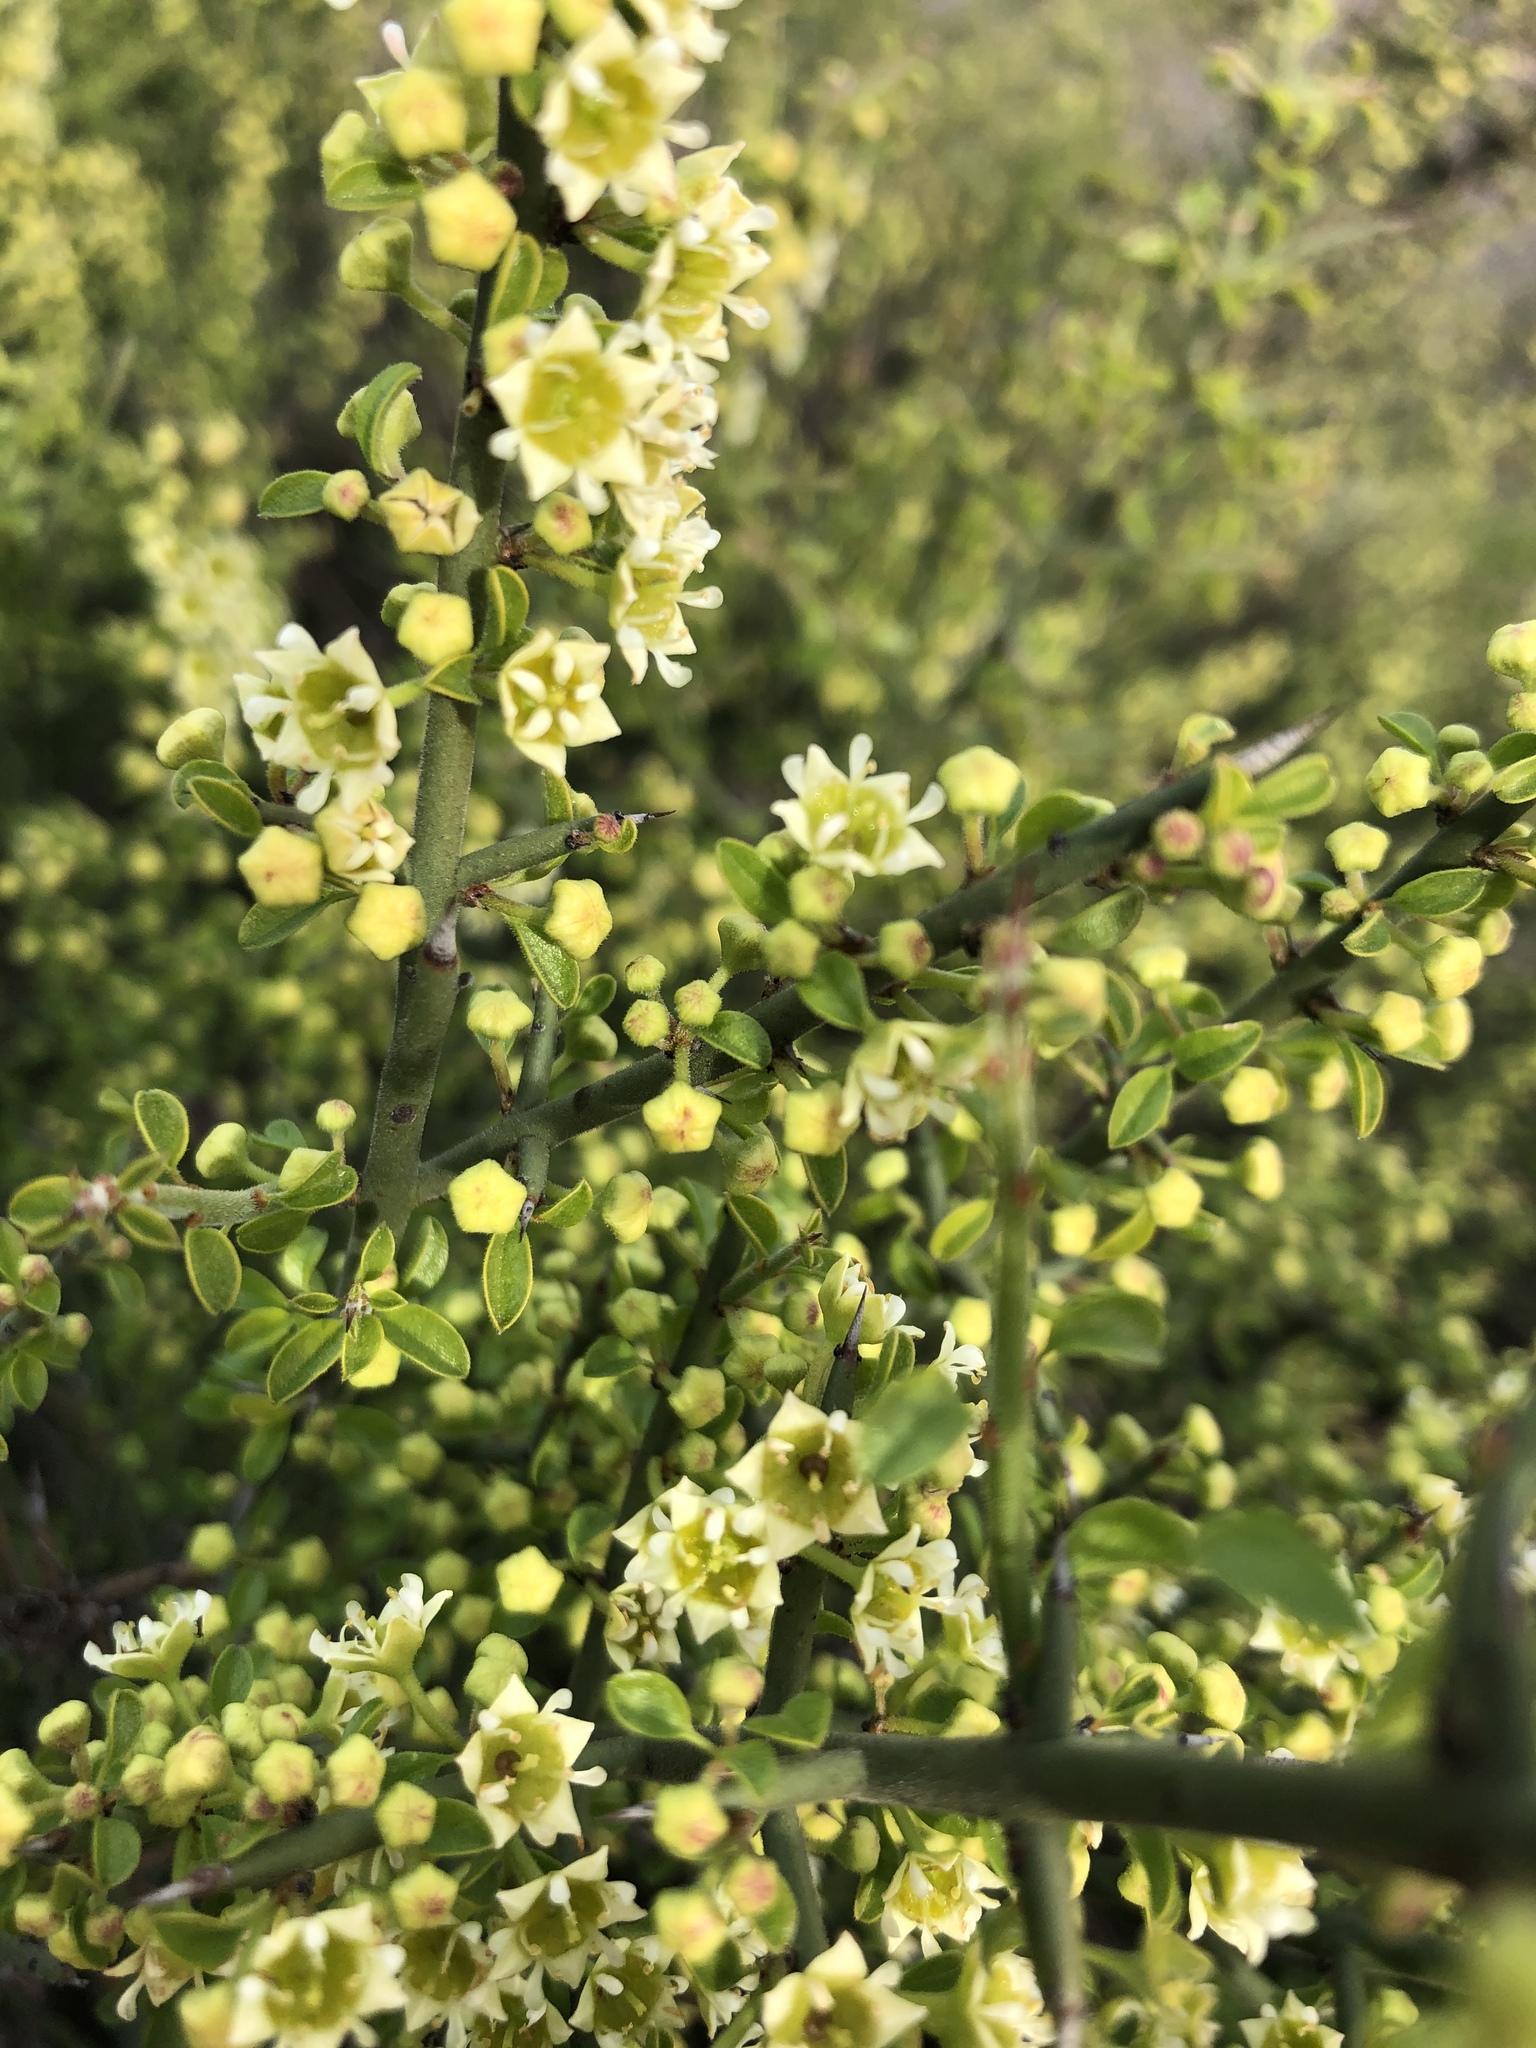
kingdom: Plantae
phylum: Tracheophyta
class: Magnoliopsida
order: Rosales
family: Rhamnaceae
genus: Adolphia
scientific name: Adolphia californica
